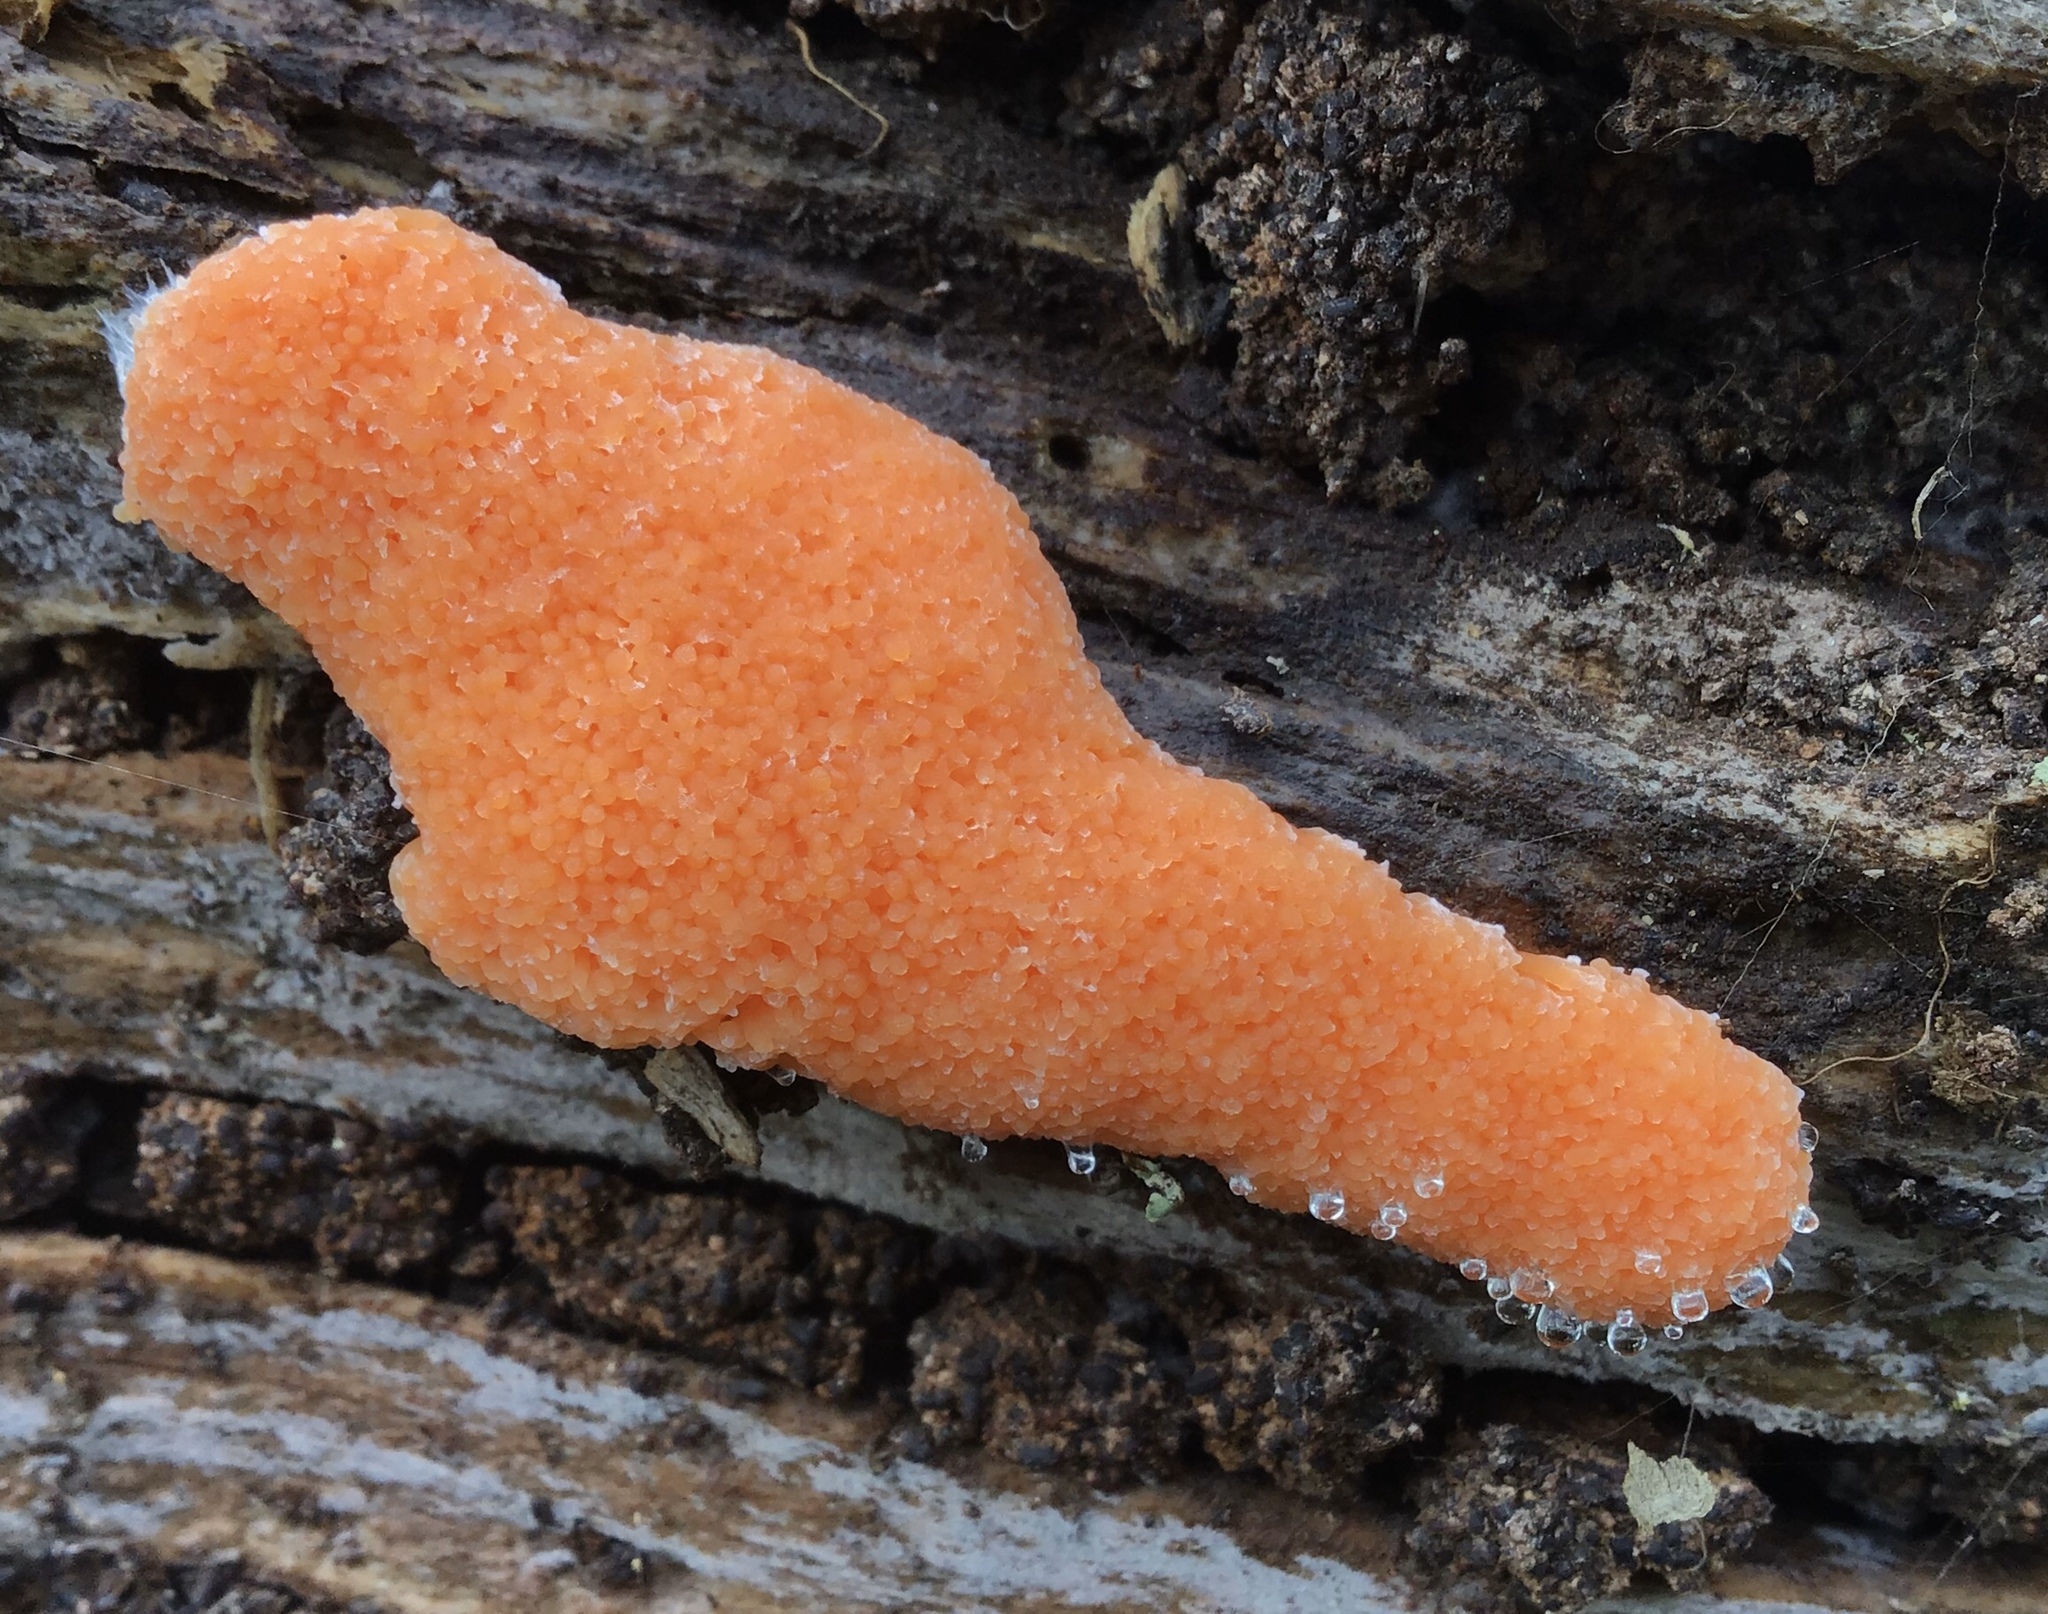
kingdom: Protozoa
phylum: Mycetozoa
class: Myxomycetes
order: Cribrariales
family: Tubiferaceae
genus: Tubifera
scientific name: Tubifera montana
